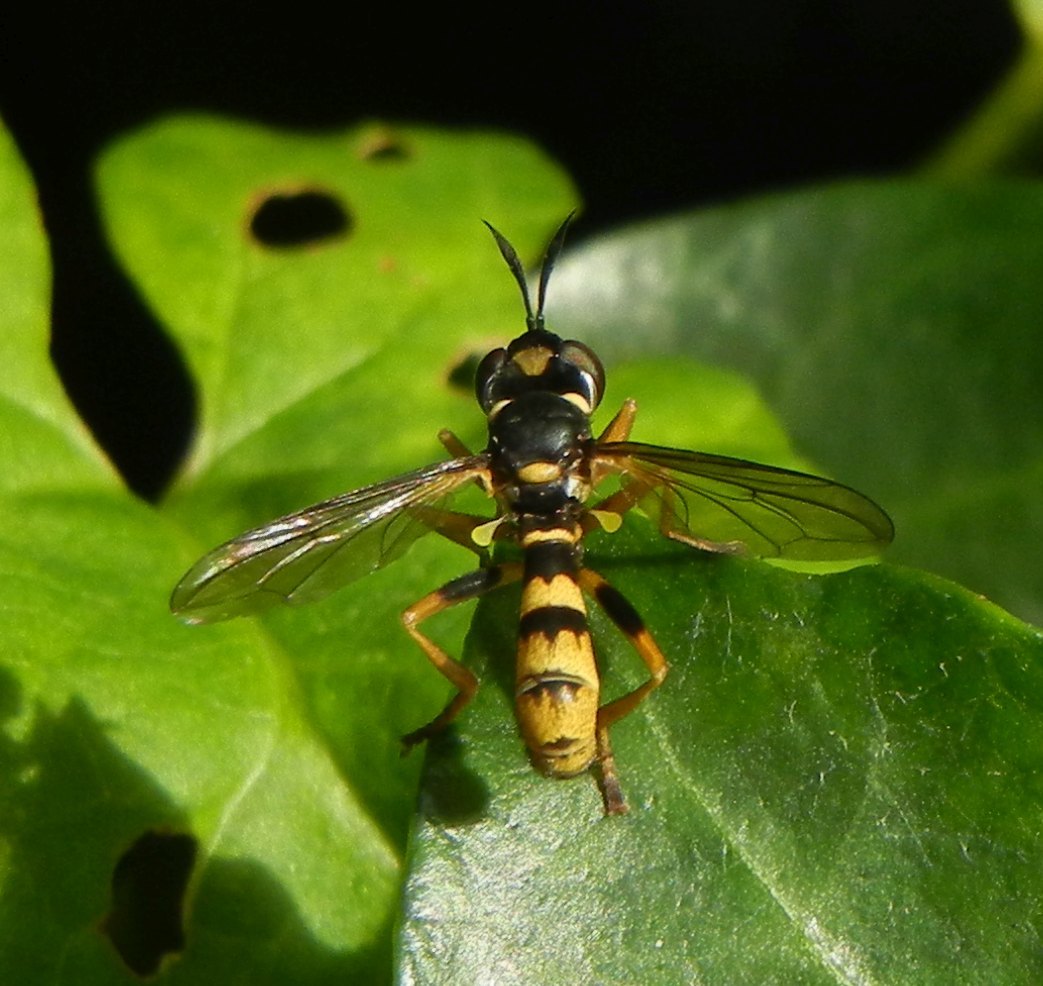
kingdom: Animalia
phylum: Arthropoda
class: Insecta
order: Diptera
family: Conopidae
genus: Leopoldius
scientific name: Leopoldius signatus
